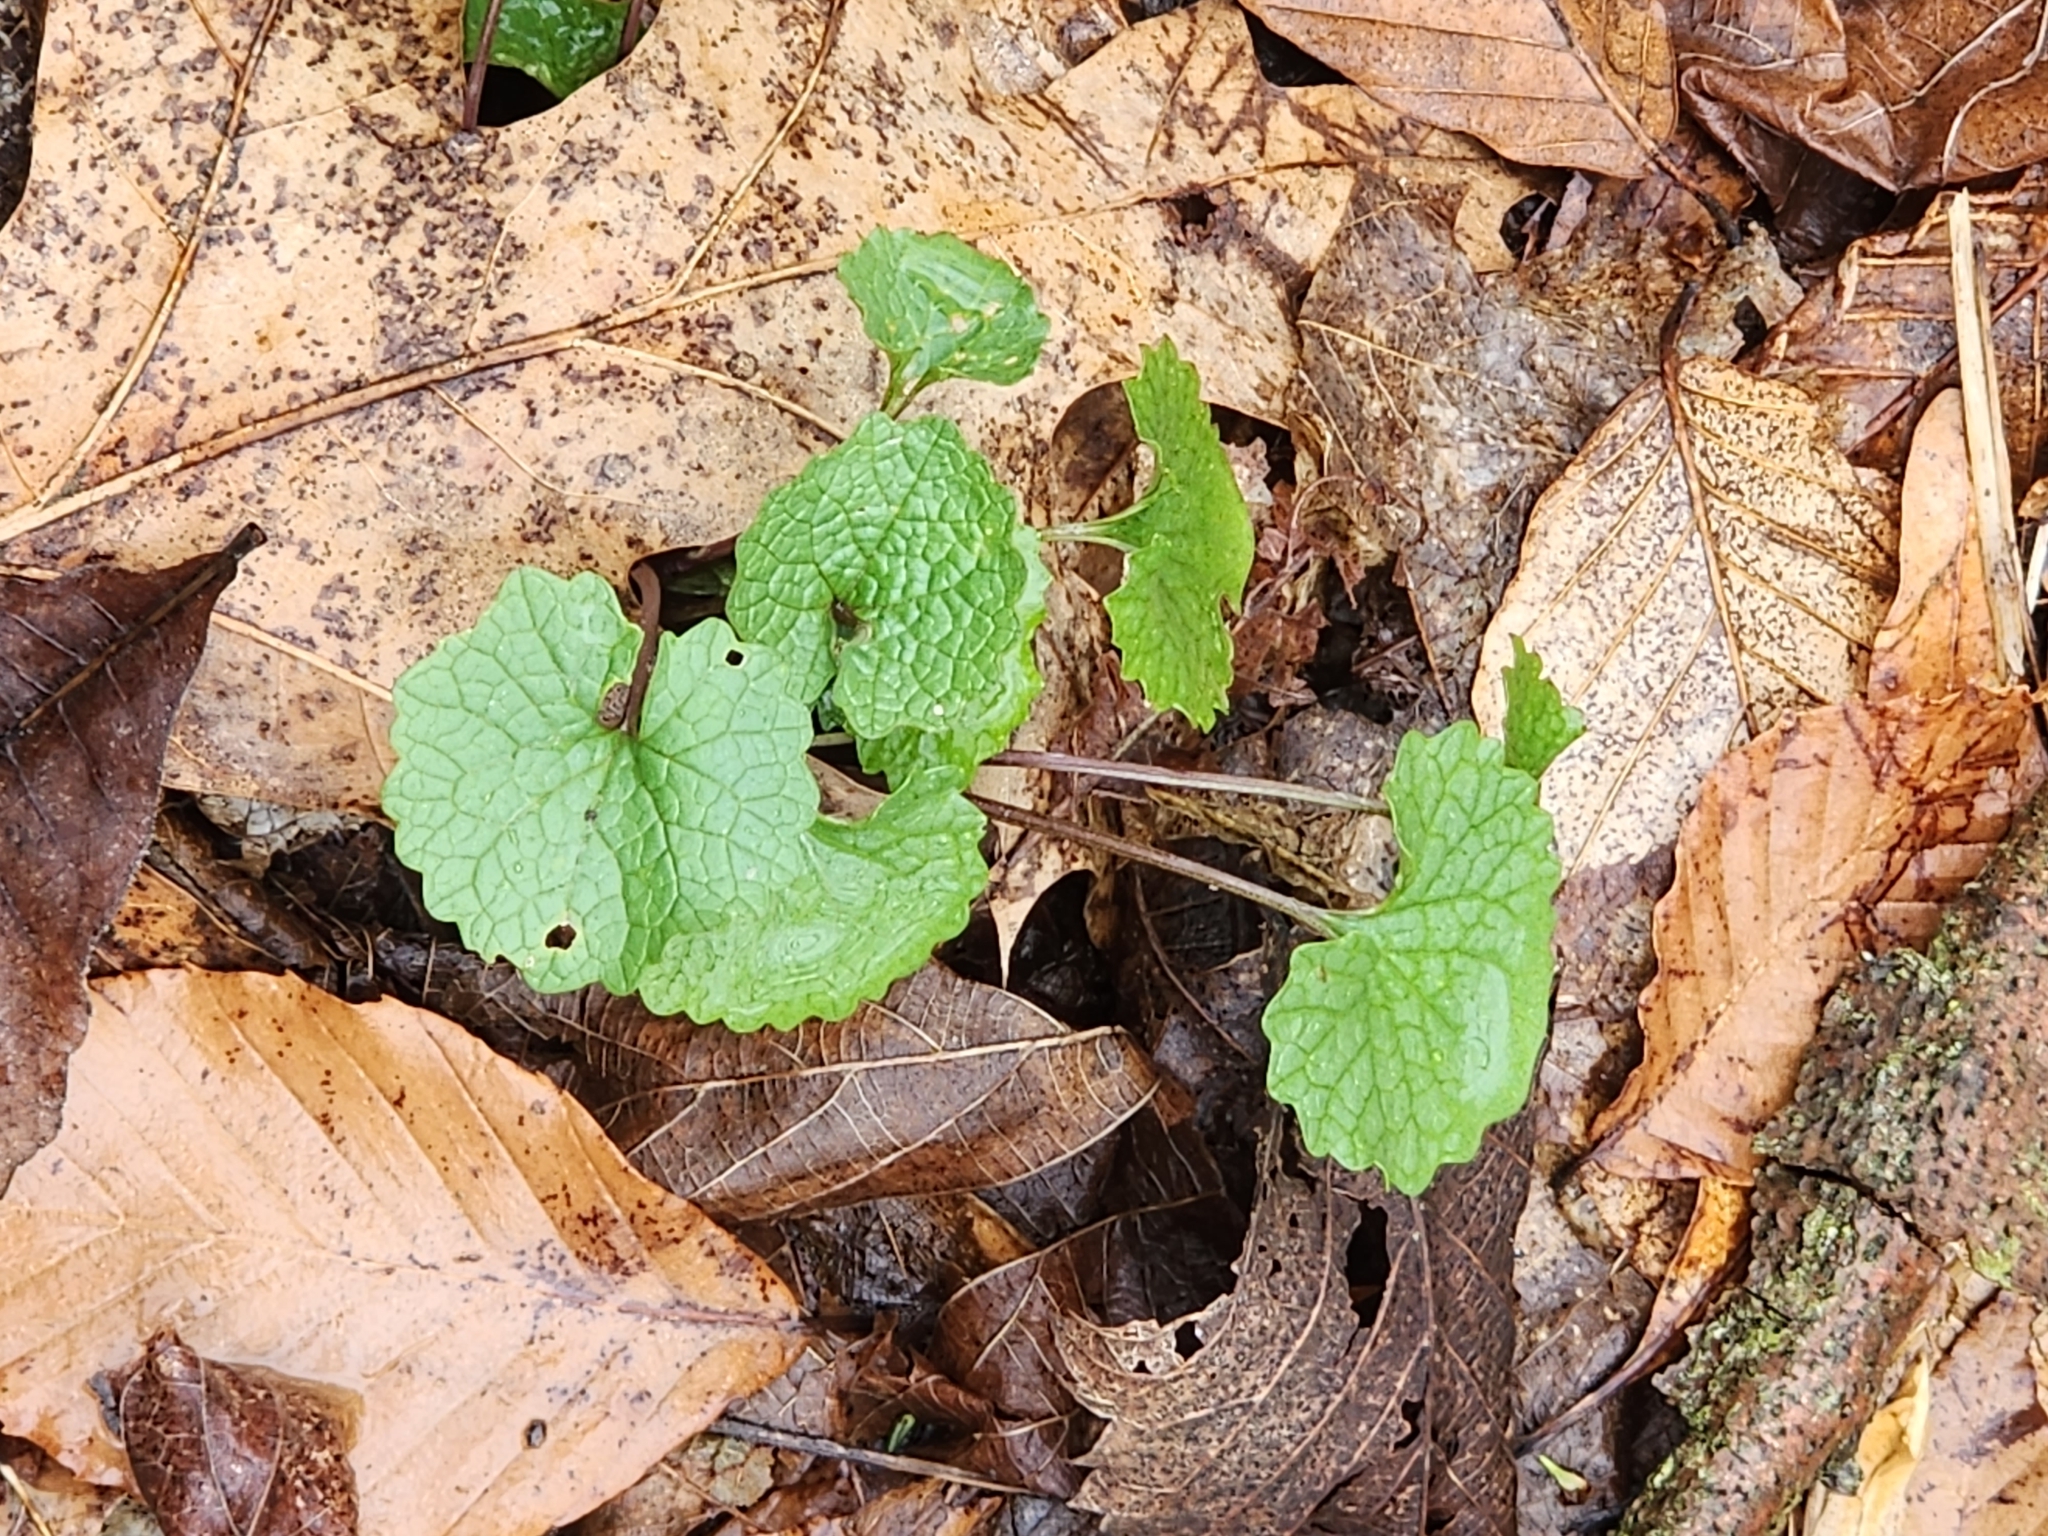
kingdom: Plantae
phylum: Tracheophyta
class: Magnoliopsida
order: Brassicales
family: Brassicaceae
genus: Alliaria
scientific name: Alliaria petiolata
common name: Garlic mustard
